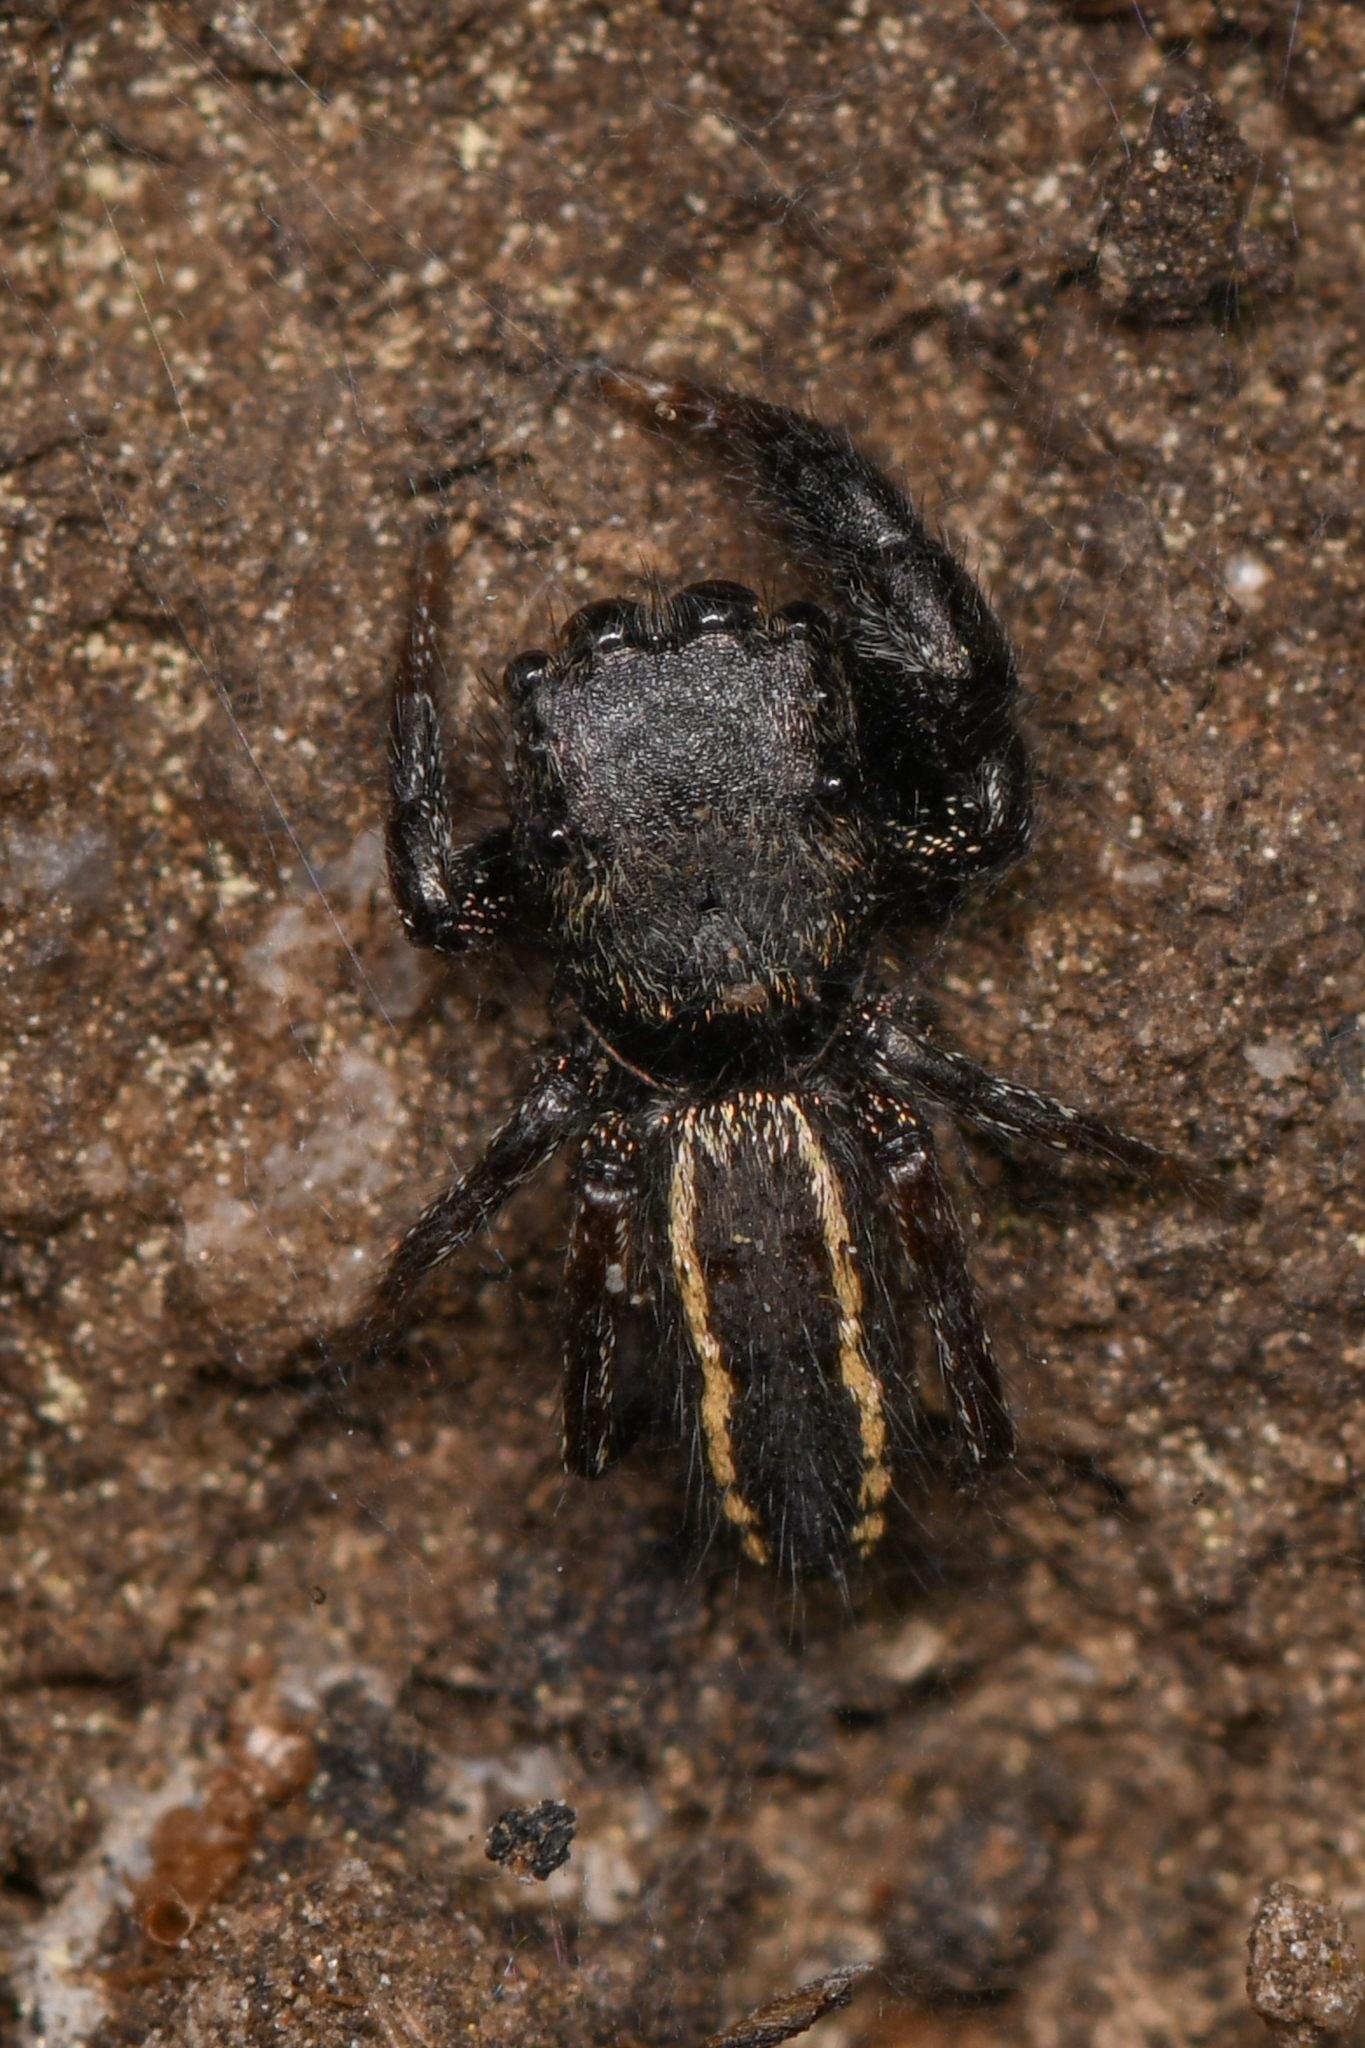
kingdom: Animalia
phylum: Arthropoda
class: Arachnida
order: Araneae
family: Salticidae
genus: Metacyrba
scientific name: Metacyrba taeniola
